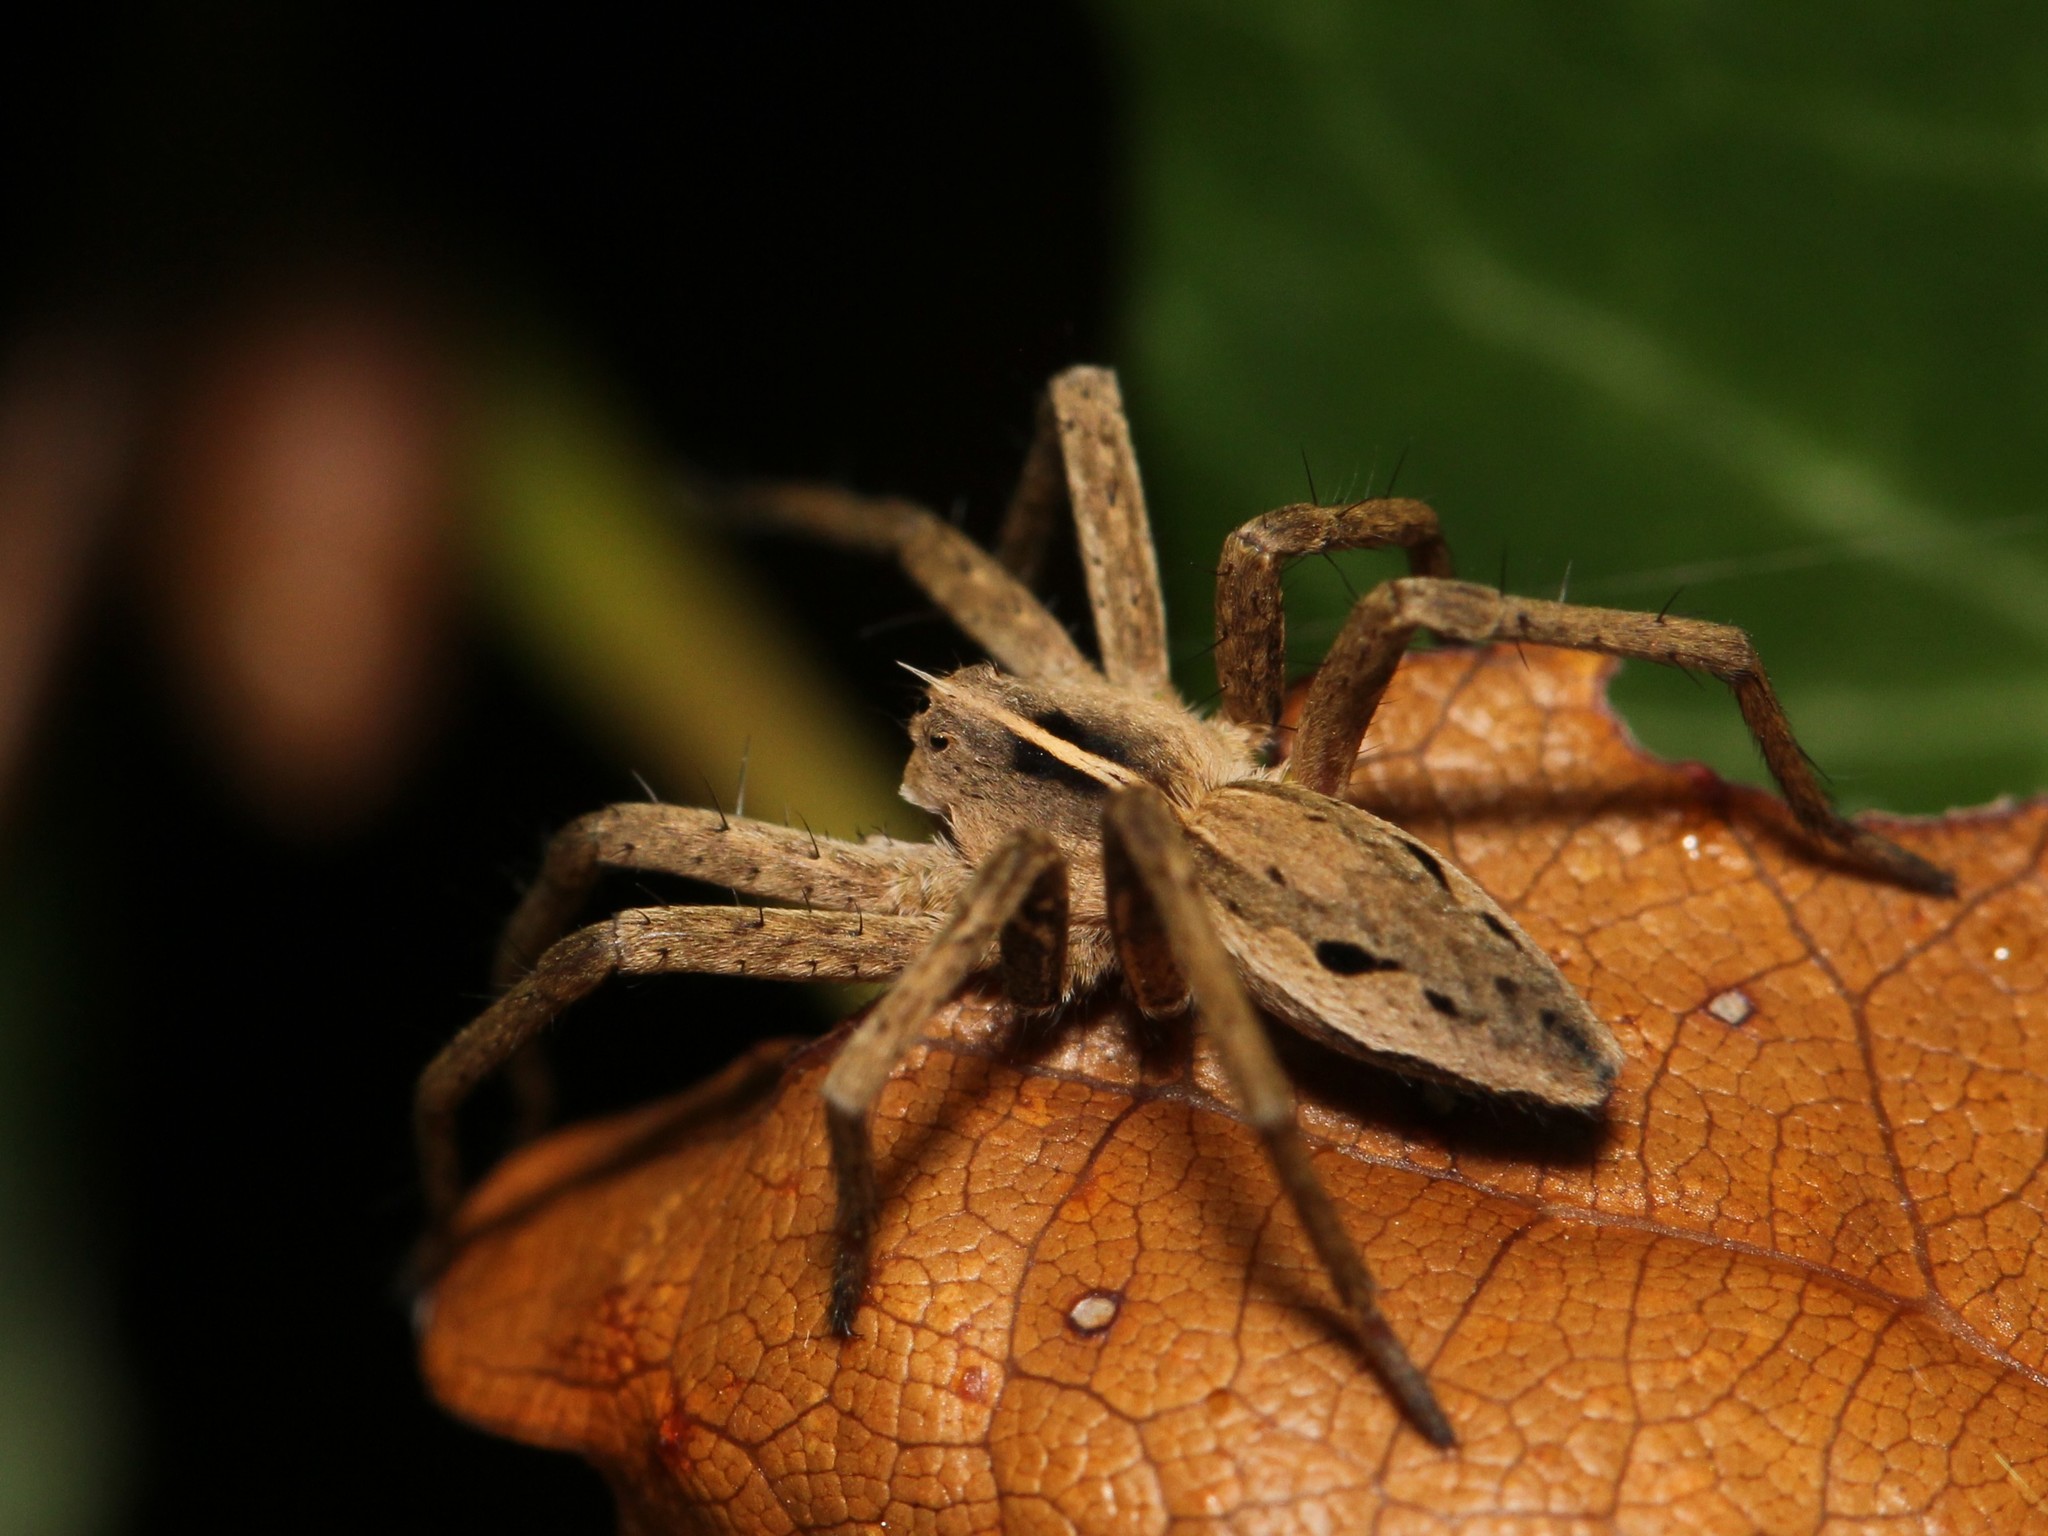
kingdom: Animalia
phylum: Arthropoda
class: Arachnida
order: Araneae
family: Pisauridae
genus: Pisaura
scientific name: Pisaura mirabilis
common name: Tent spider
